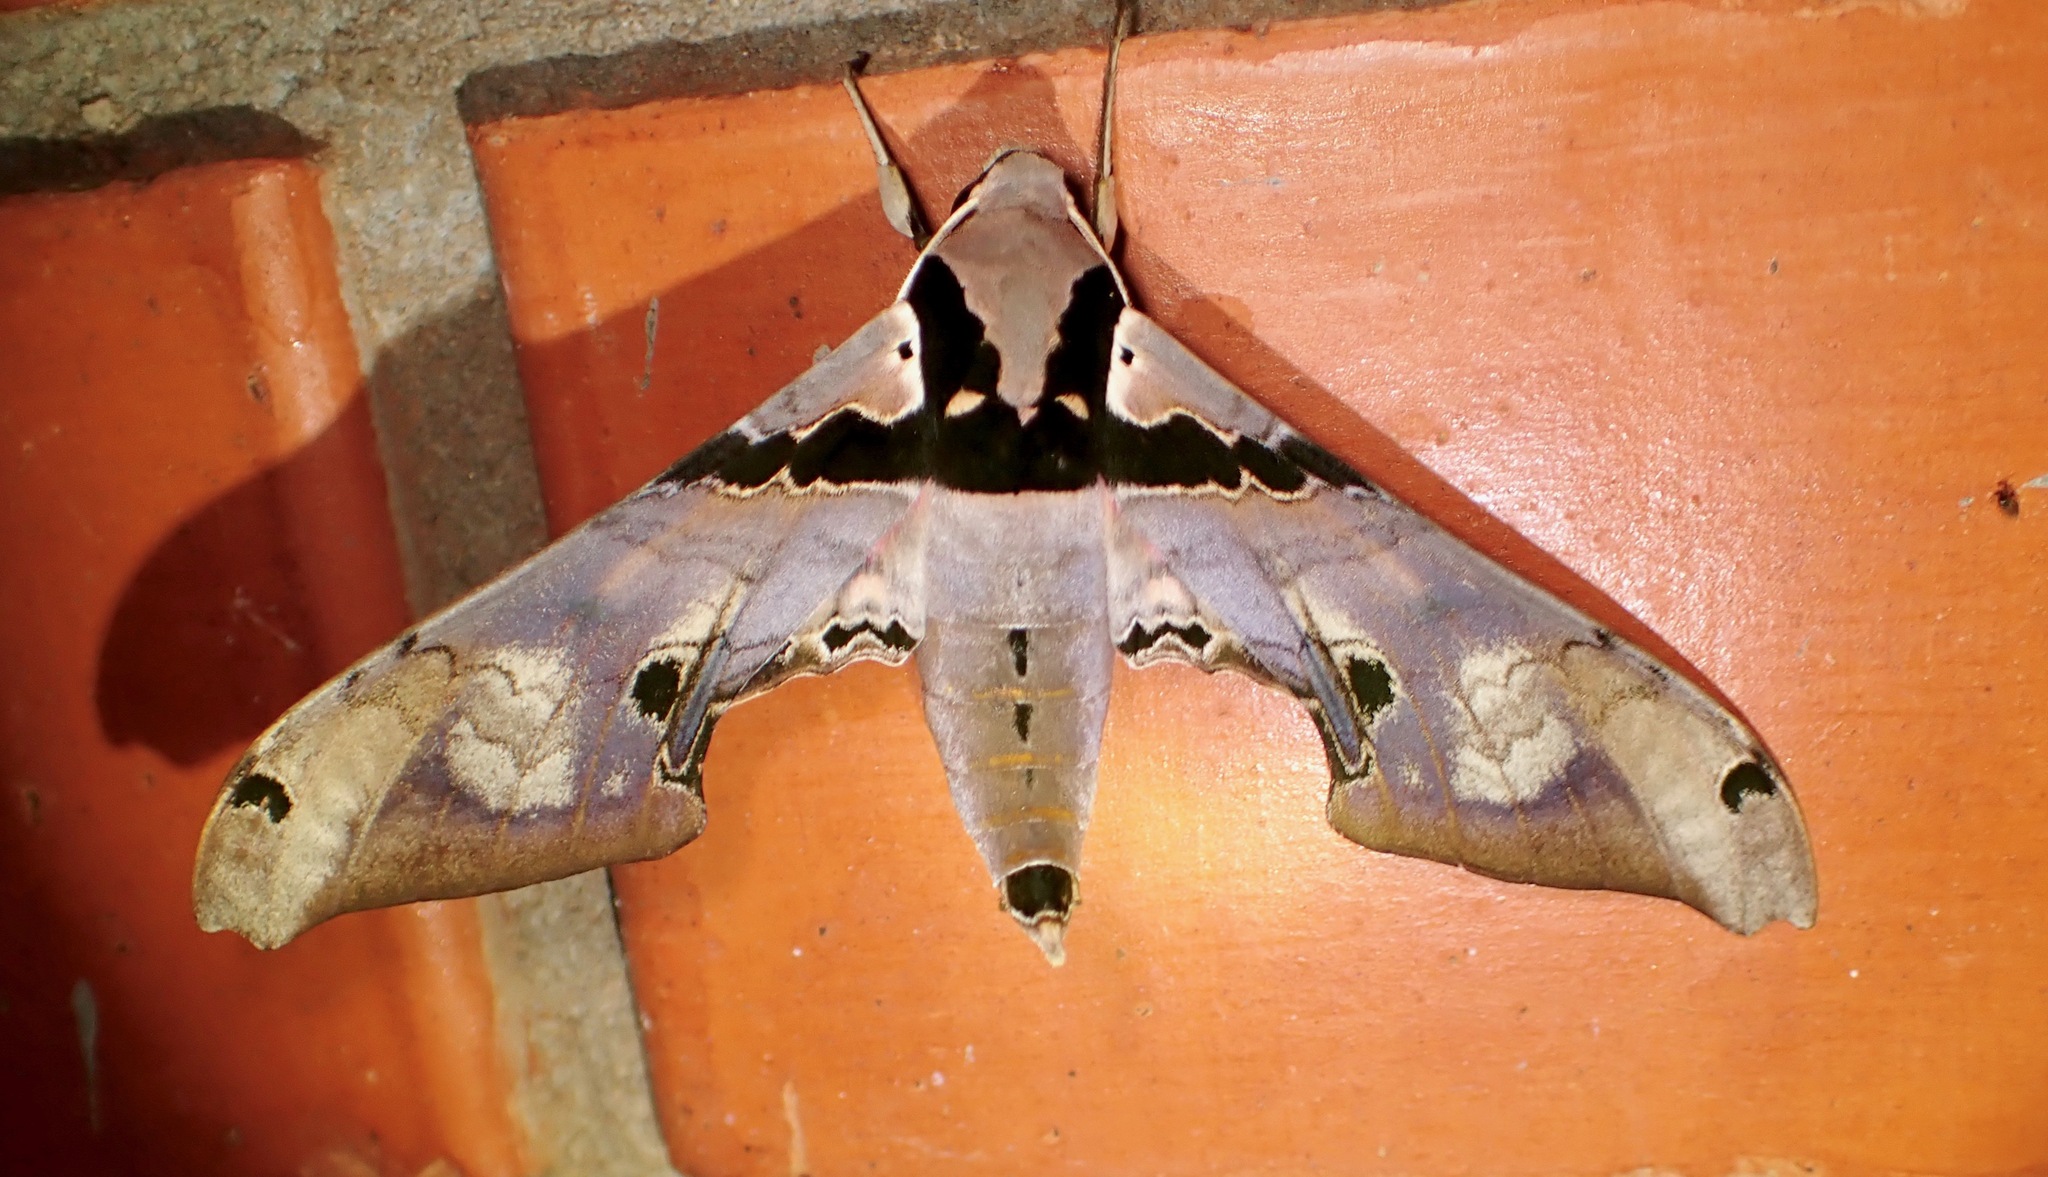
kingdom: Animalia
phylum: Arthropoda
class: Insecta
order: Lepidoptera
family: Sphingidae
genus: Adhemarius
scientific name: Adhemarius gannascus
